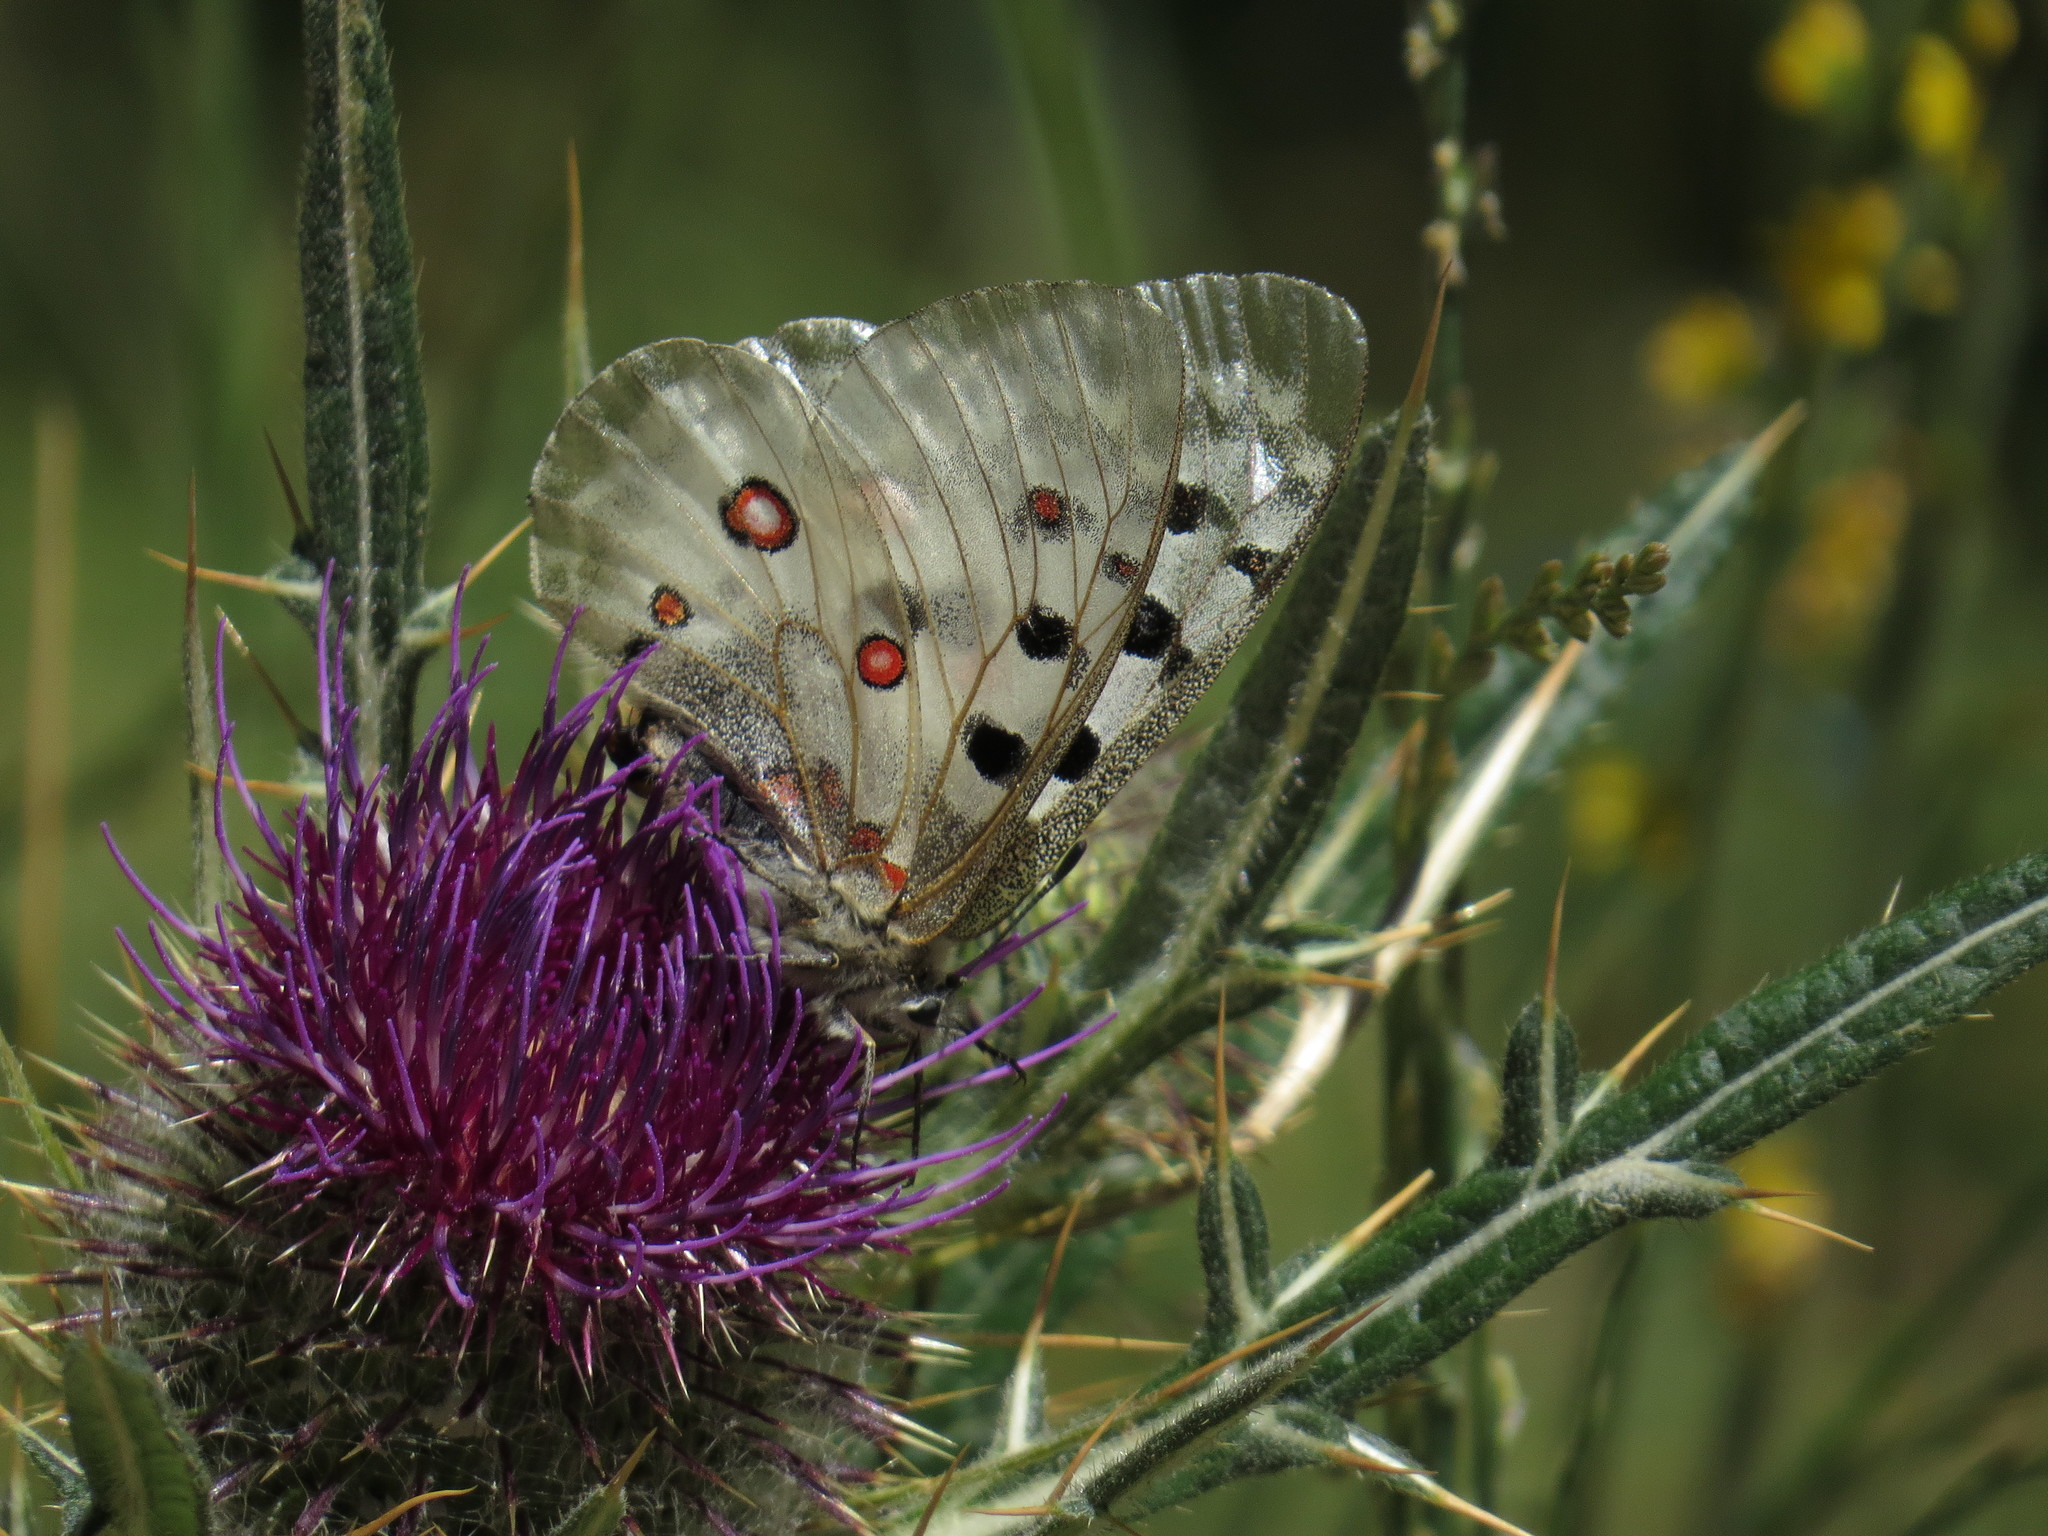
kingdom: Animalia
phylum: Arthropoda
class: Insecta
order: Lepidoptera
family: Papilionidae
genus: Parnassius
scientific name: Parnassius apollo
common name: Apollo
